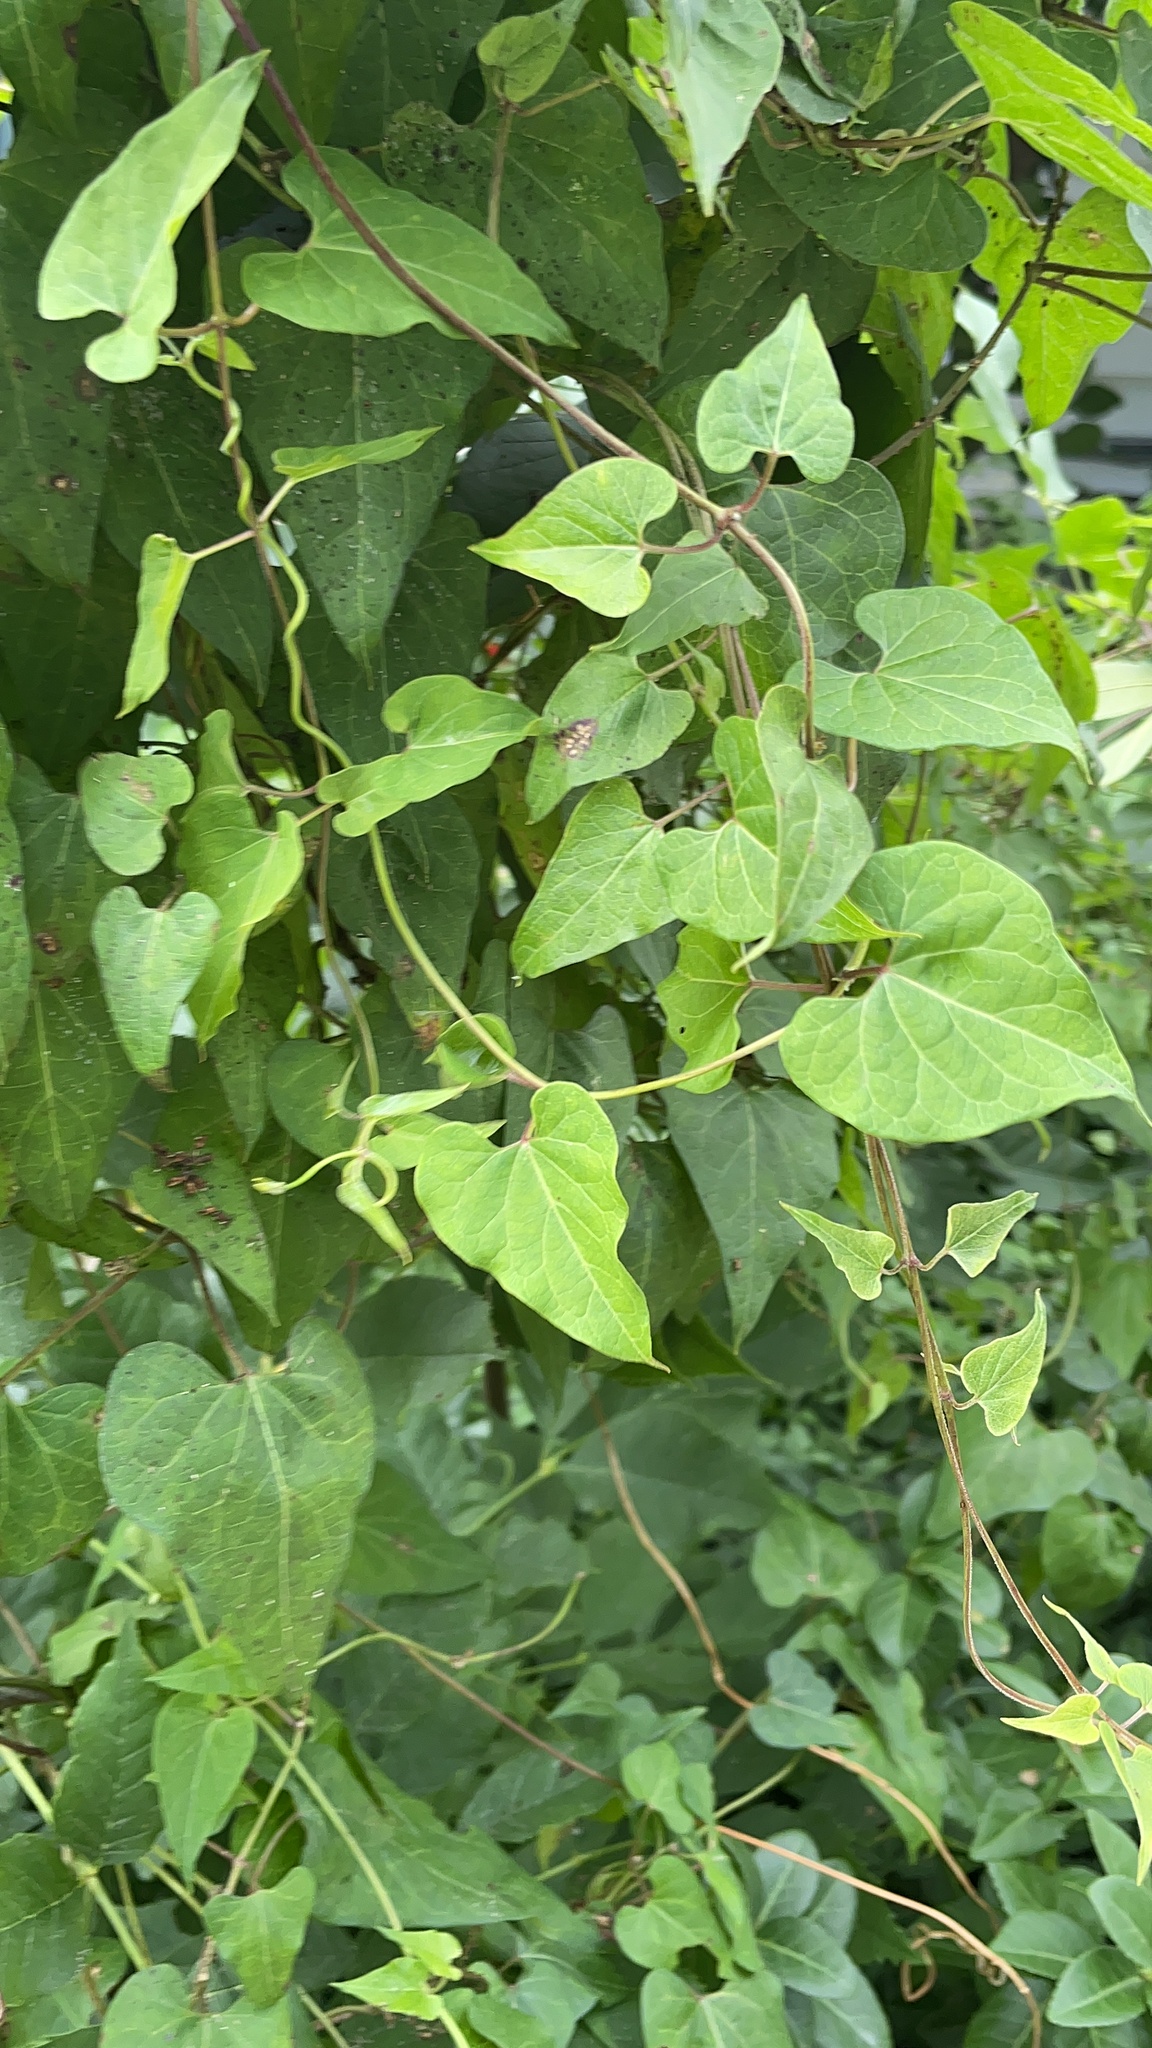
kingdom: Plantae
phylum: Tracheophyta
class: Magnoliopsida
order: Gentianales
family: Apocynaceae
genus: Cynanchum
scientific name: Cynanchum laeve
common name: Sandvine
